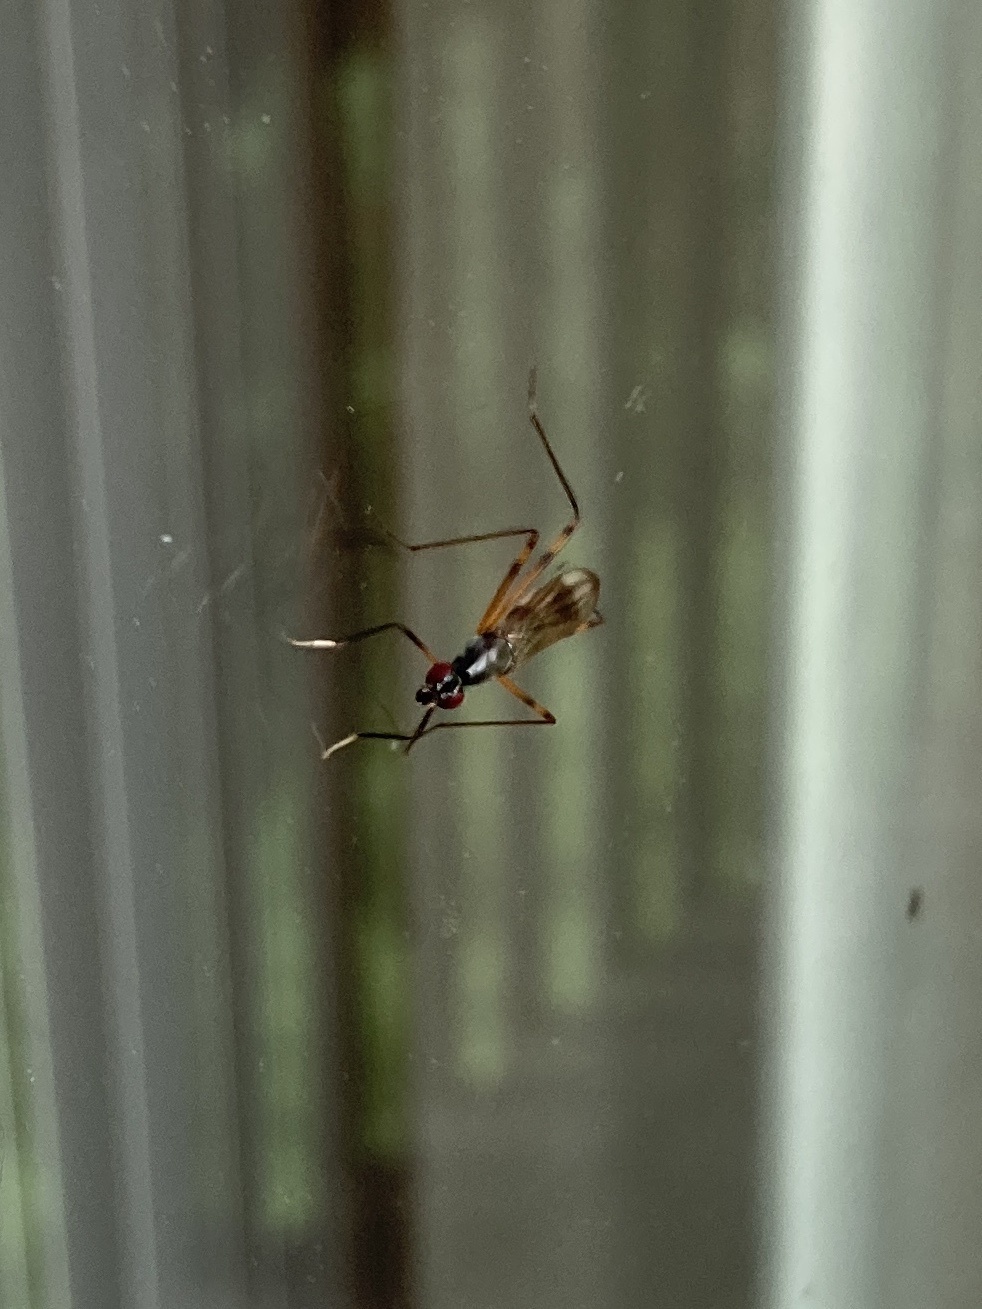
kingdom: Animalia
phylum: Arthropoda
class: Insecta
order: Diptera
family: Micropezidae
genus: Rainieria
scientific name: Rainieria antennaepes
